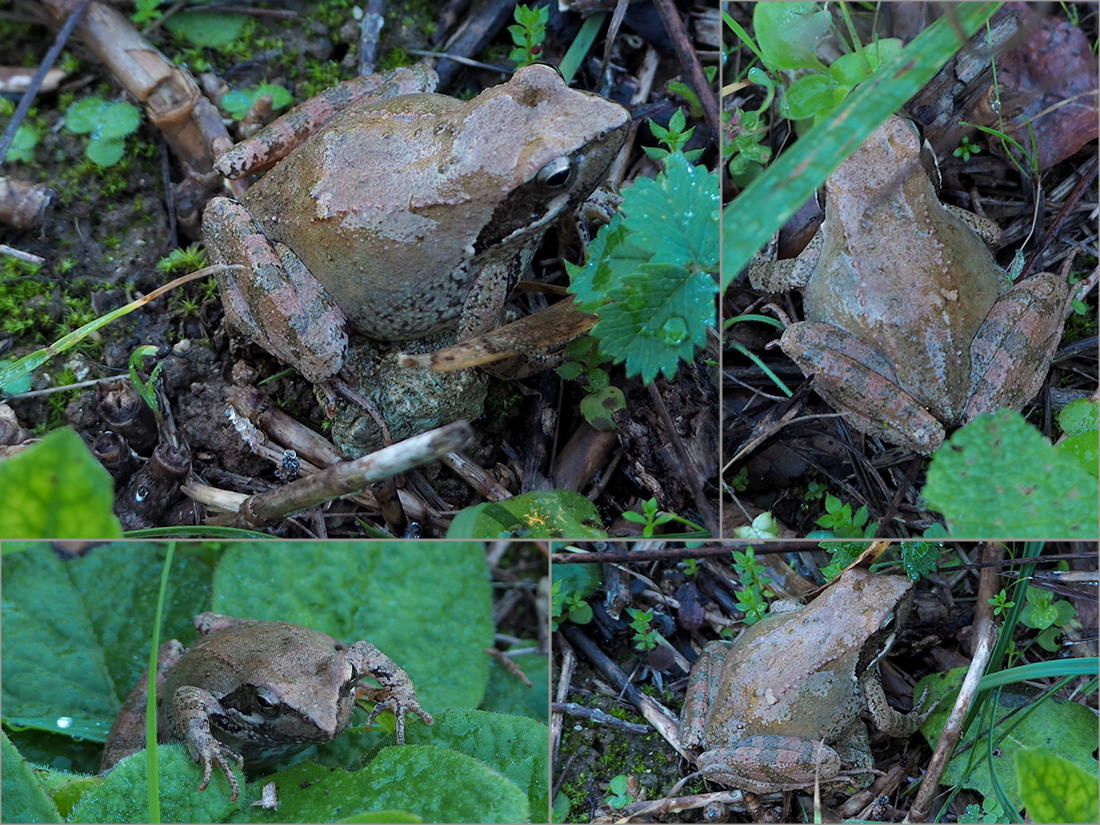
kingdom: Animalia
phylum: Chordata
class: Amphibia
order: Anura
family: Ranidae
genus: Rana
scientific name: Rana italica
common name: Italian stream frog
